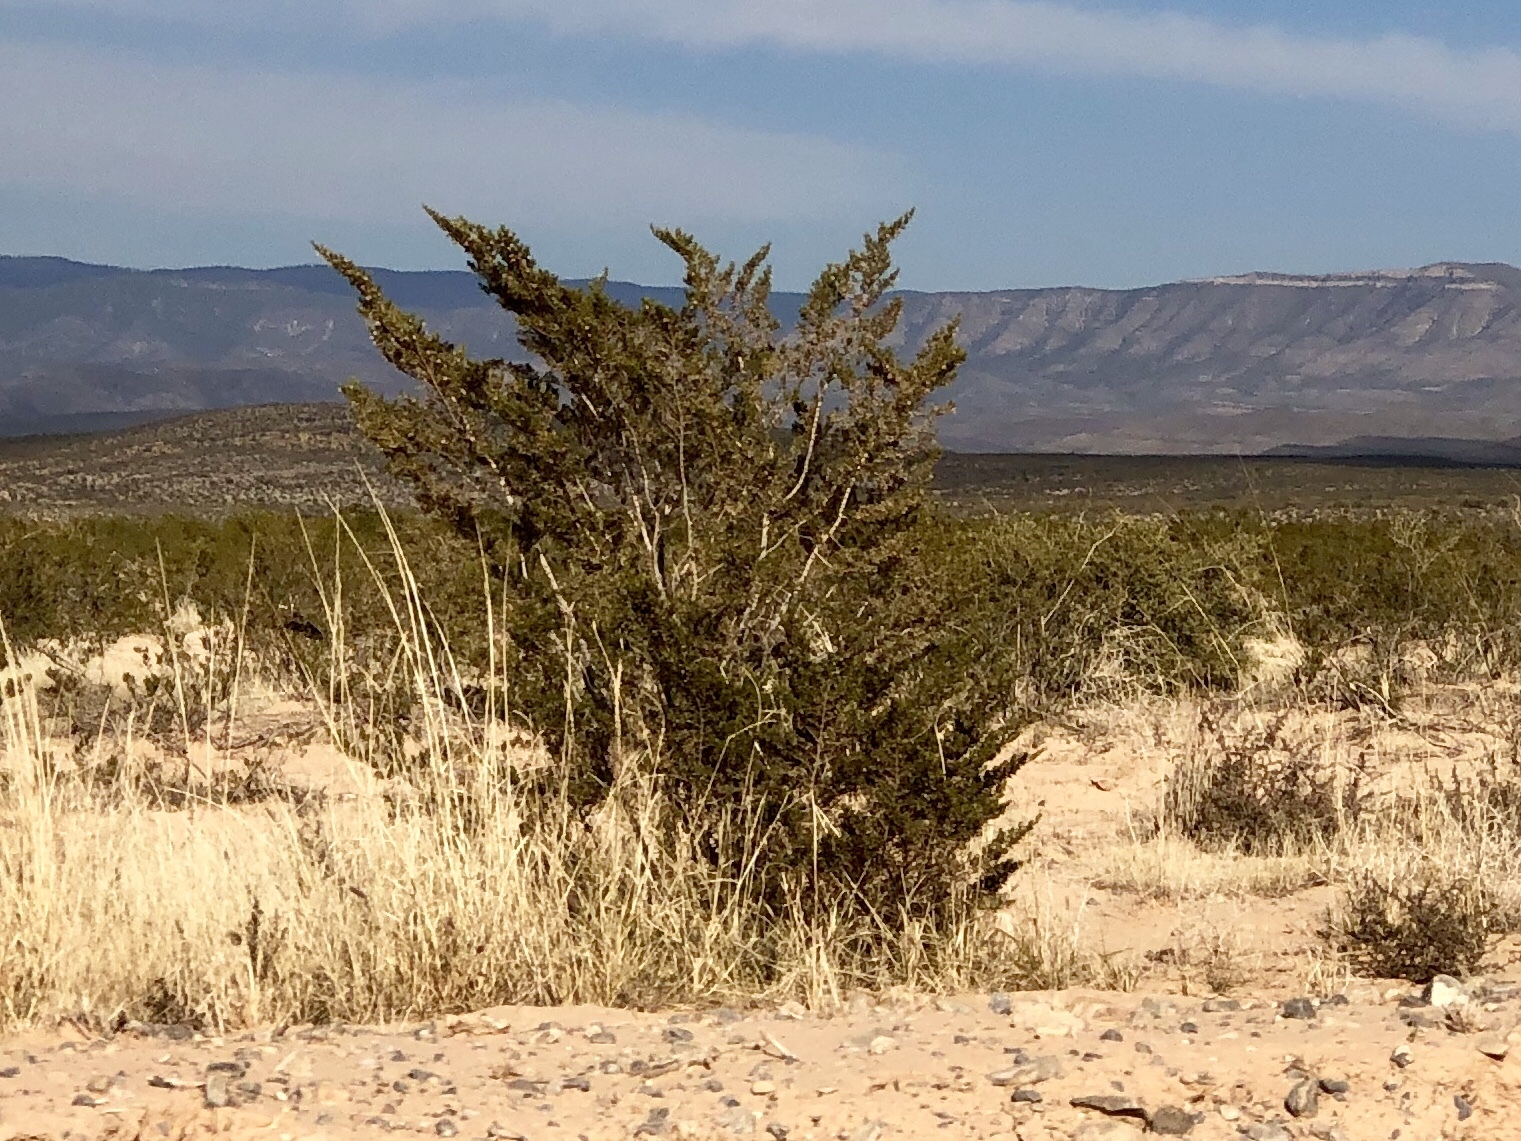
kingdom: Plantae
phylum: Tracheophyta
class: Magnoliopsida
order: Zygophyllales
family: Zygophyllaceae
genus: Larrea
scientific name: Larrea tridentata
